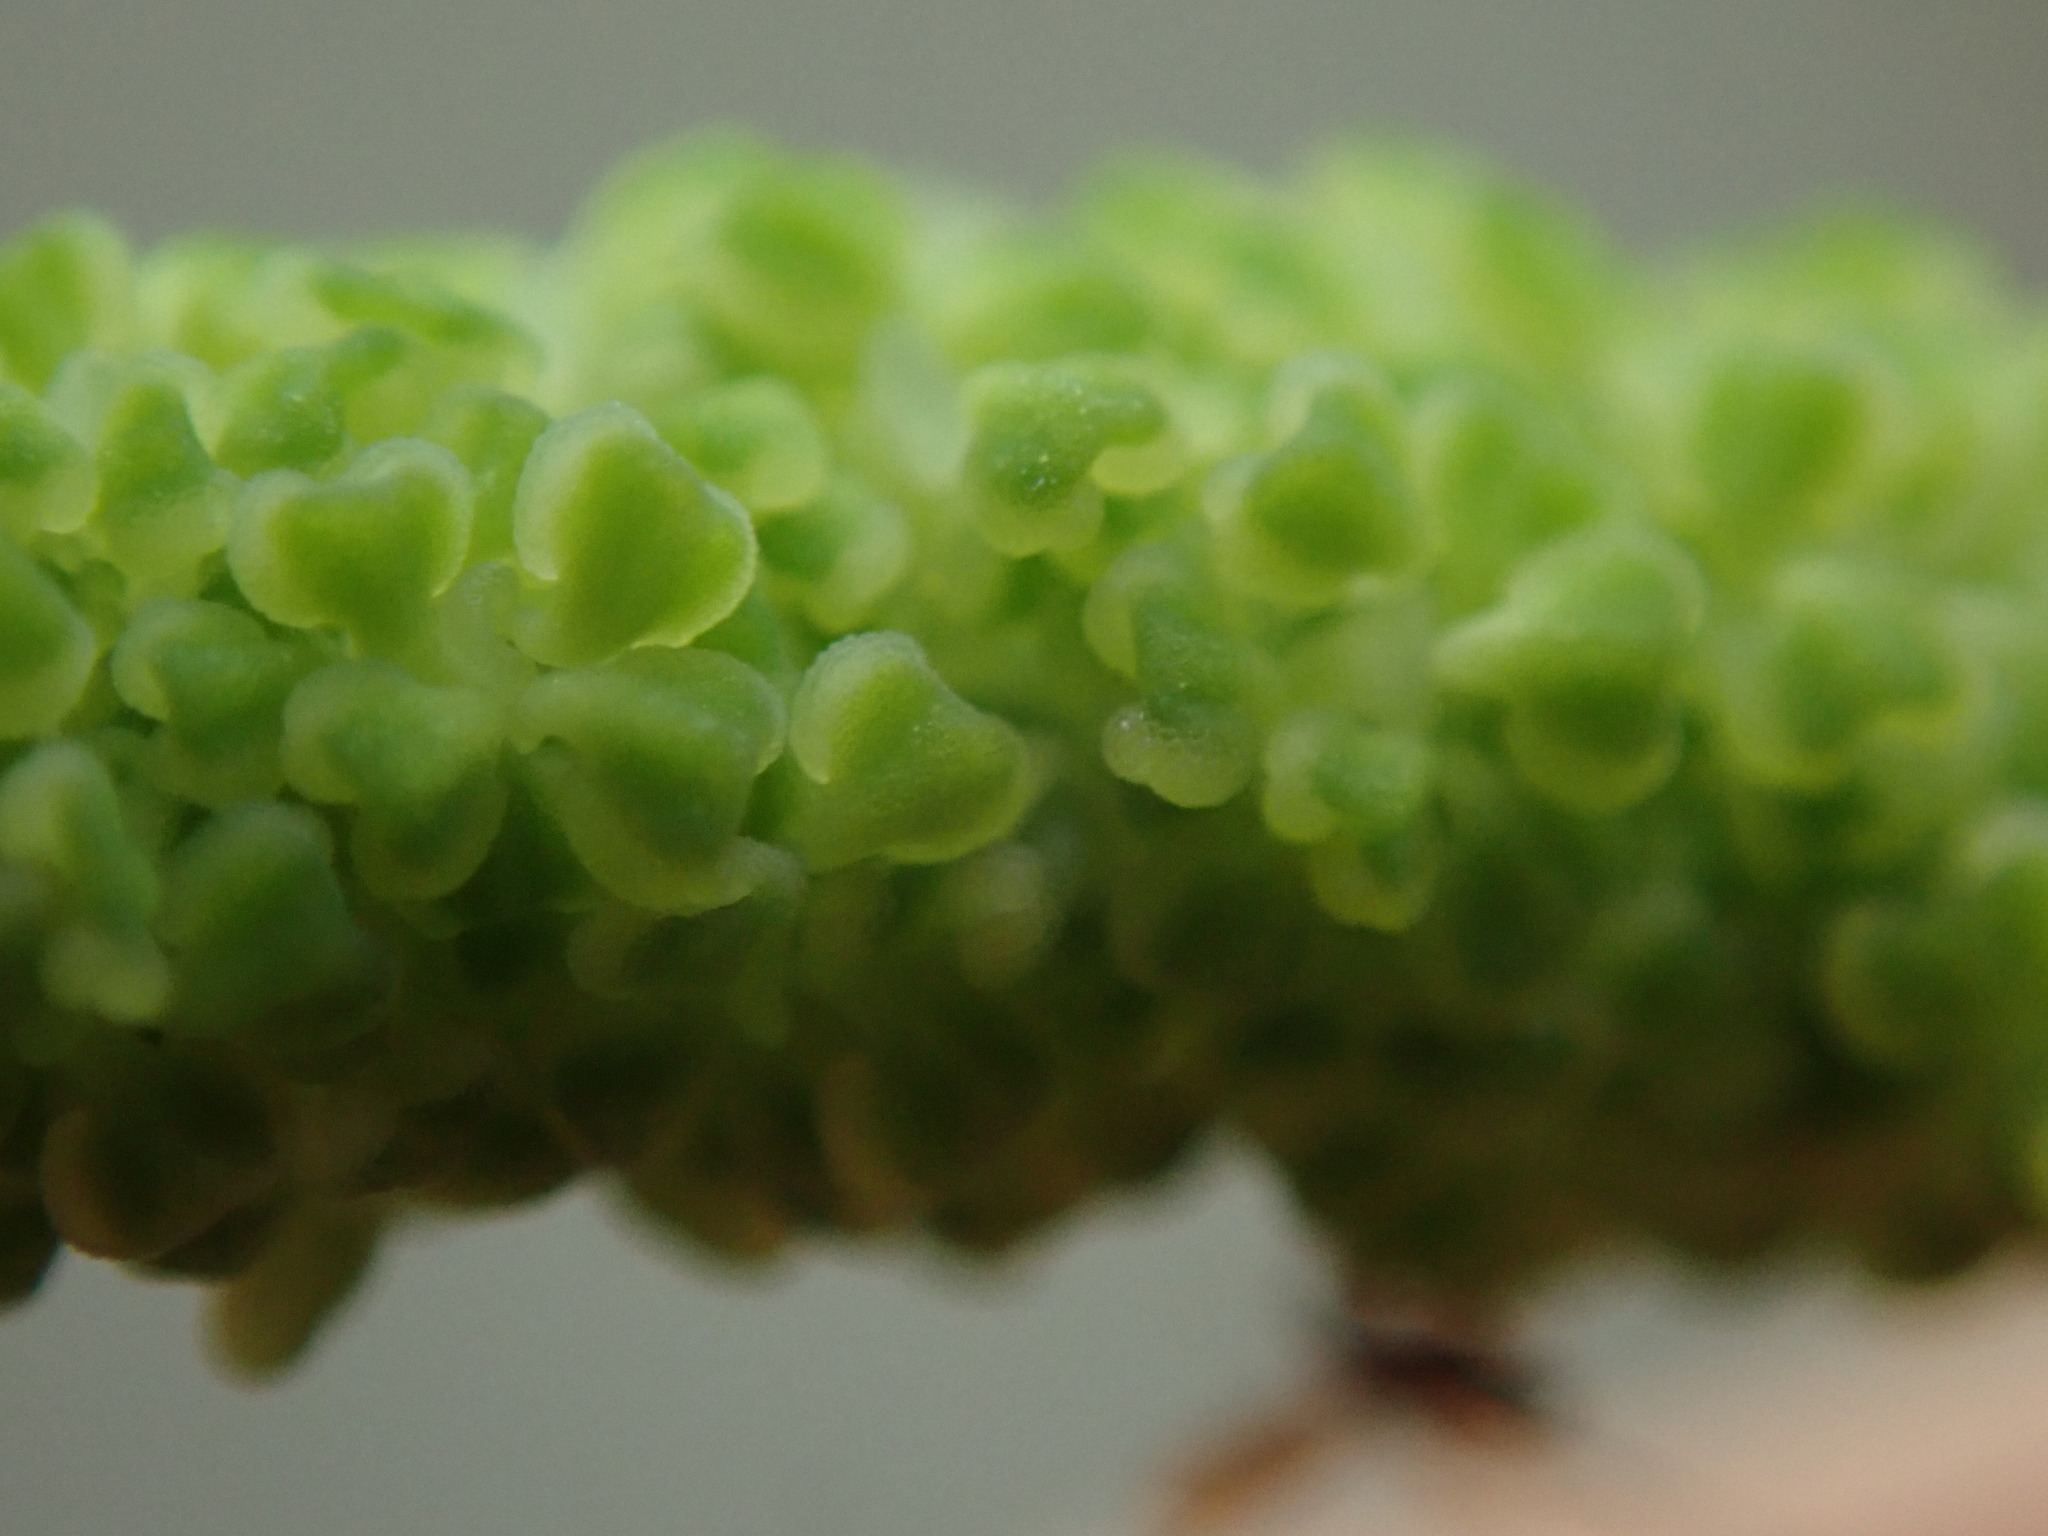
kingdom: Plantae
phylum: Tracheophyta
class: Magnoliopsida
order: Ranunculales
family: Berberidaceae
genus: Achlys
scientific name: Achlys triphylla
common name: Vanilla-leaf
